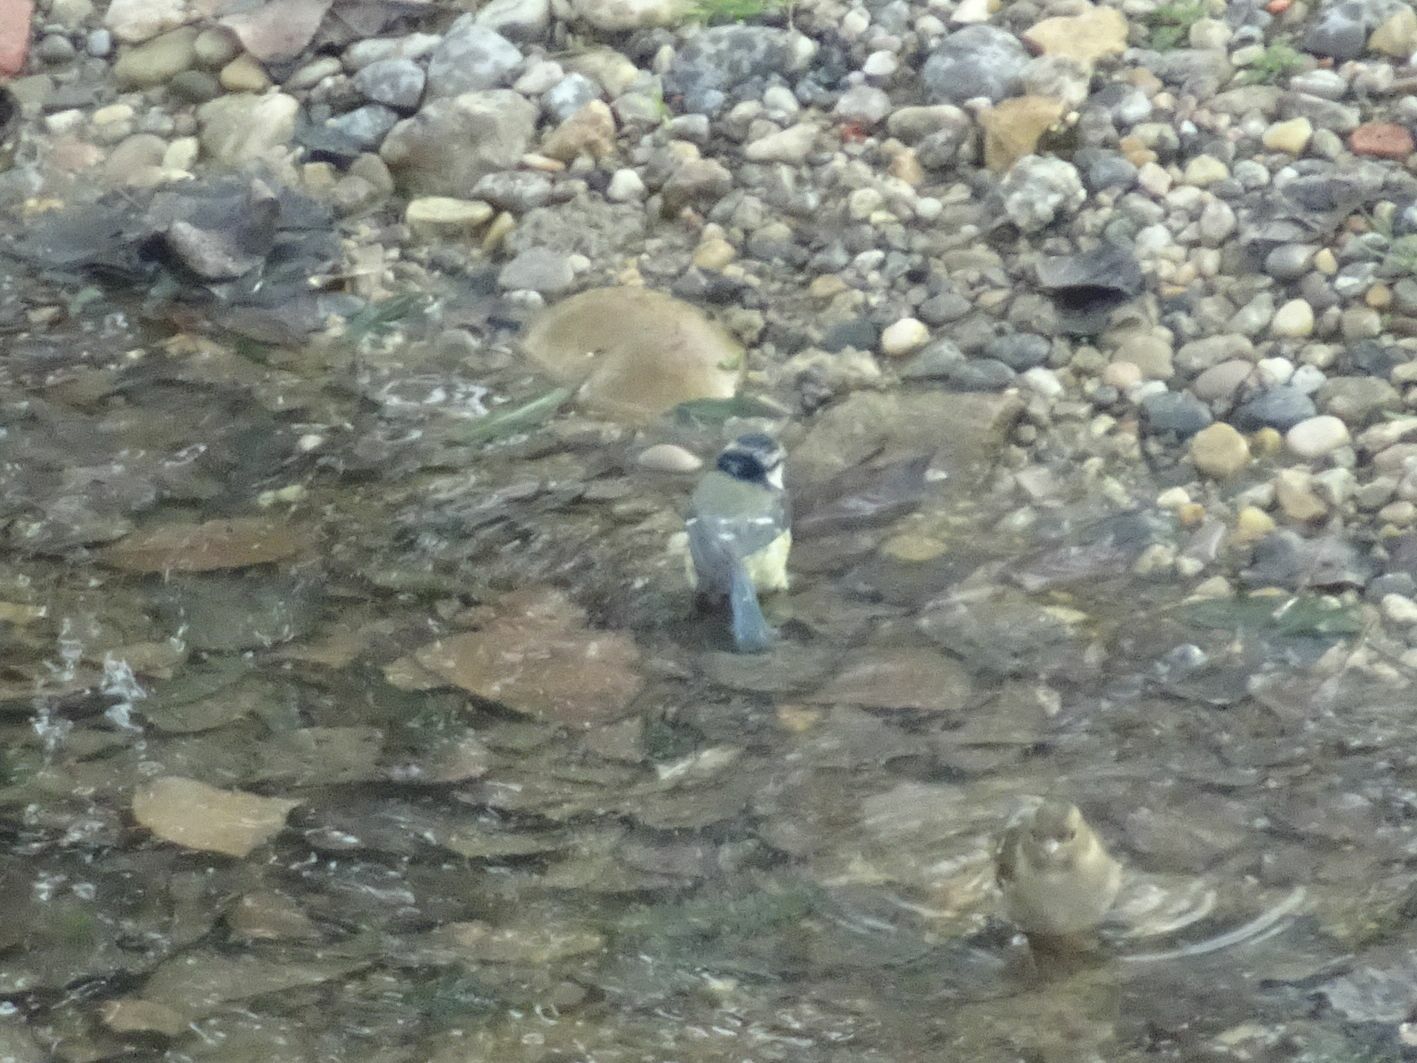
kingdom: Animalia
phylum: Chordata
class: Aves
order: Passeriformes
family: Paridae
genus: Cyanistes
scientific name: Cyanistes caeruleus
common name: Eurasian blue tit
